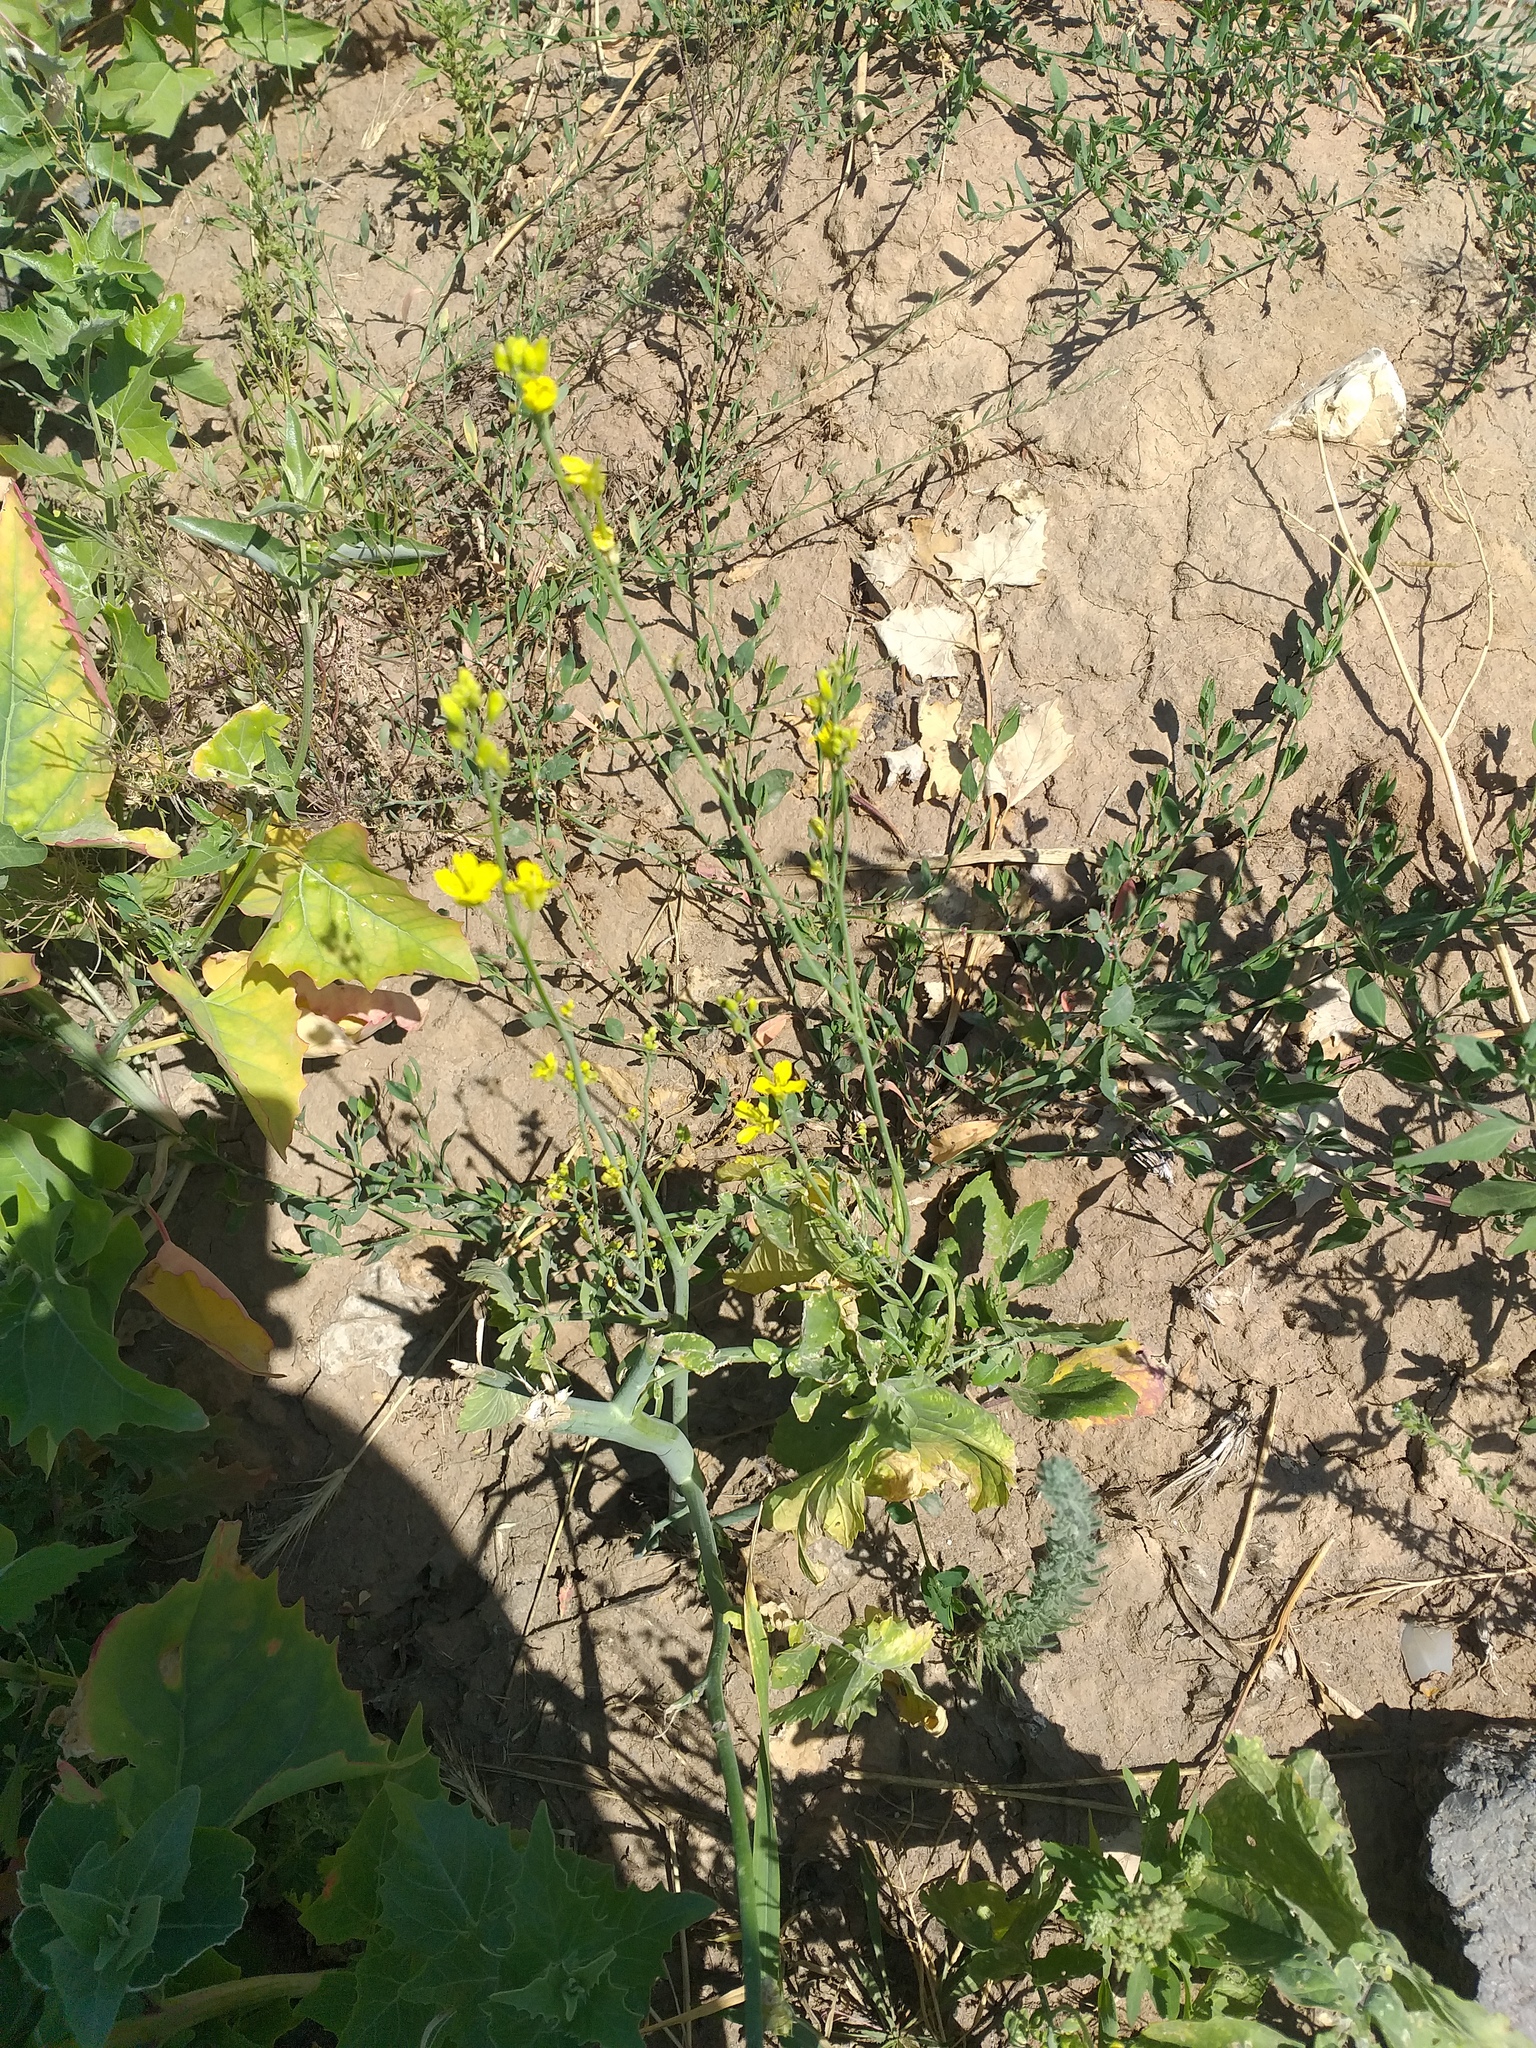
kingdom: Plantae
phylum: Tracheophyta
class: Magnoliopsida
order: Brassicales
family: Brassicaceae
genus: Brassica
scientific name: Brassica napus
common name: Rape
